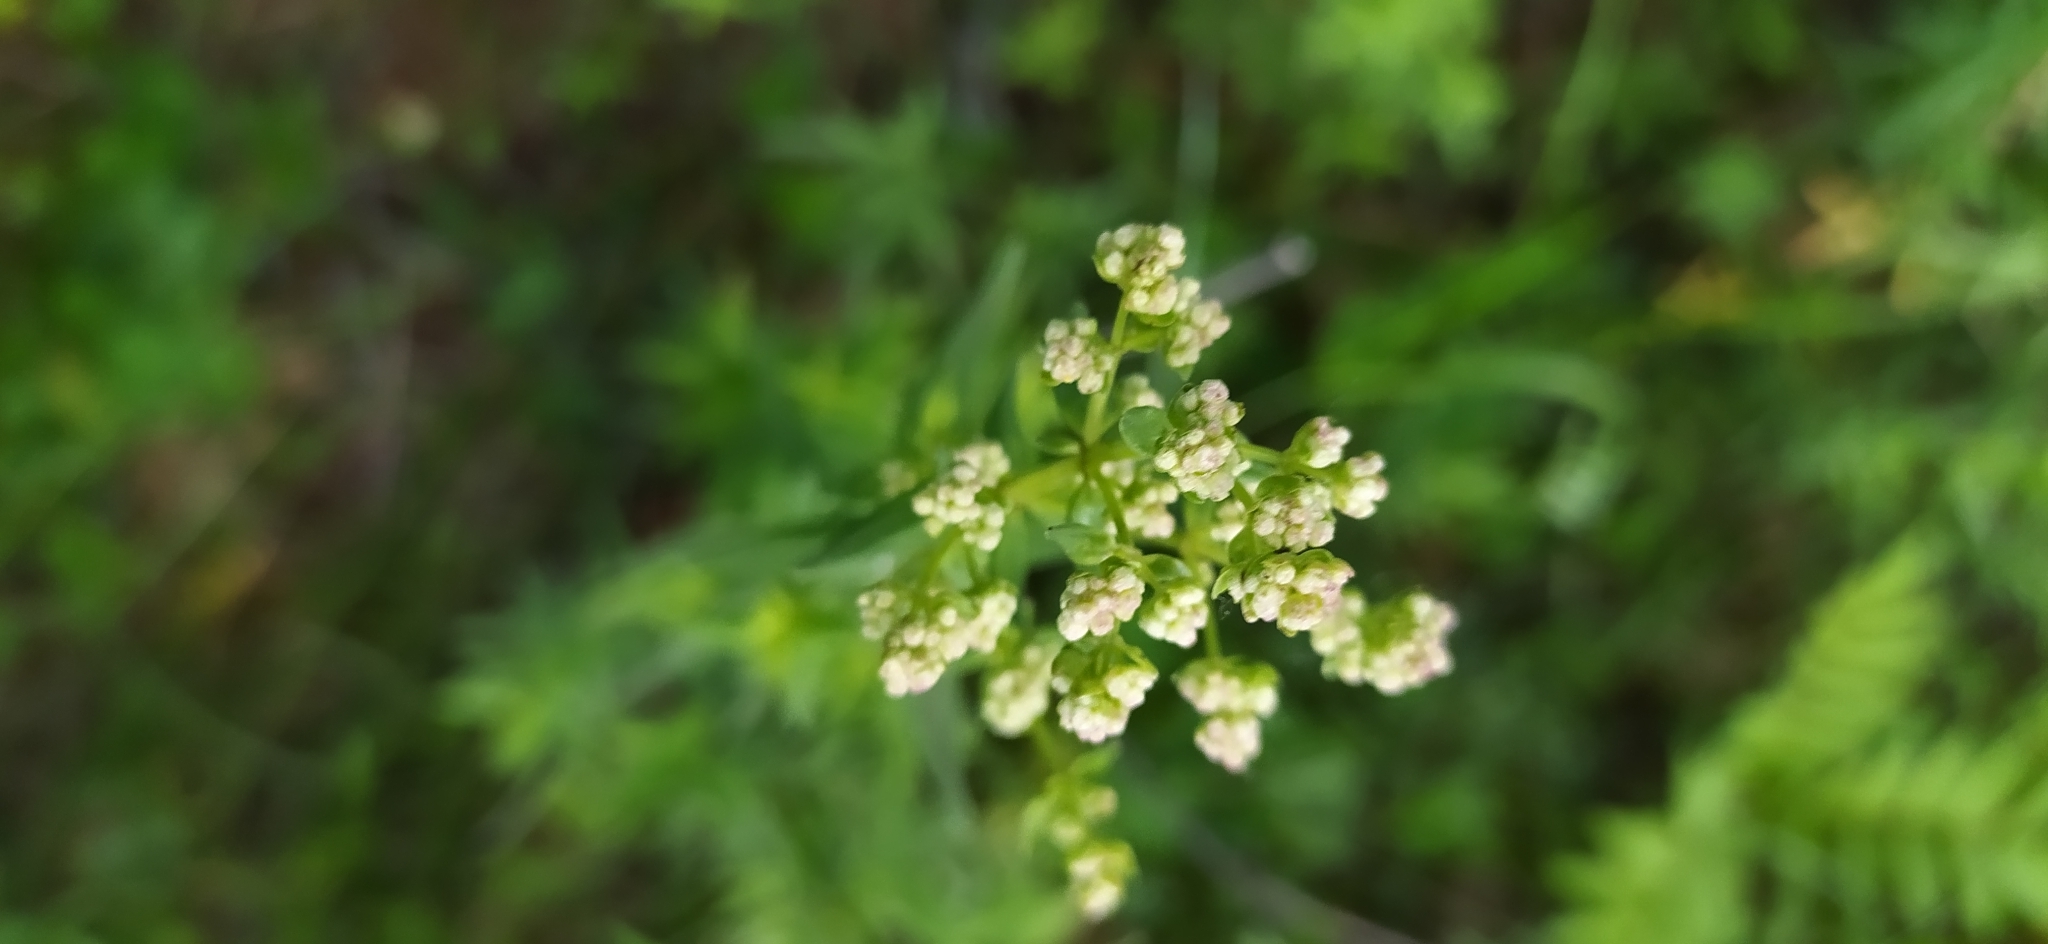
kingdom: Plantae
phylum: Tracheophyta
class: Magnoliopsida
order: Gentianales
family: Rubiaceae
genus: Galium
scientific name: Galium boreale
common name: Northern bedstraw
